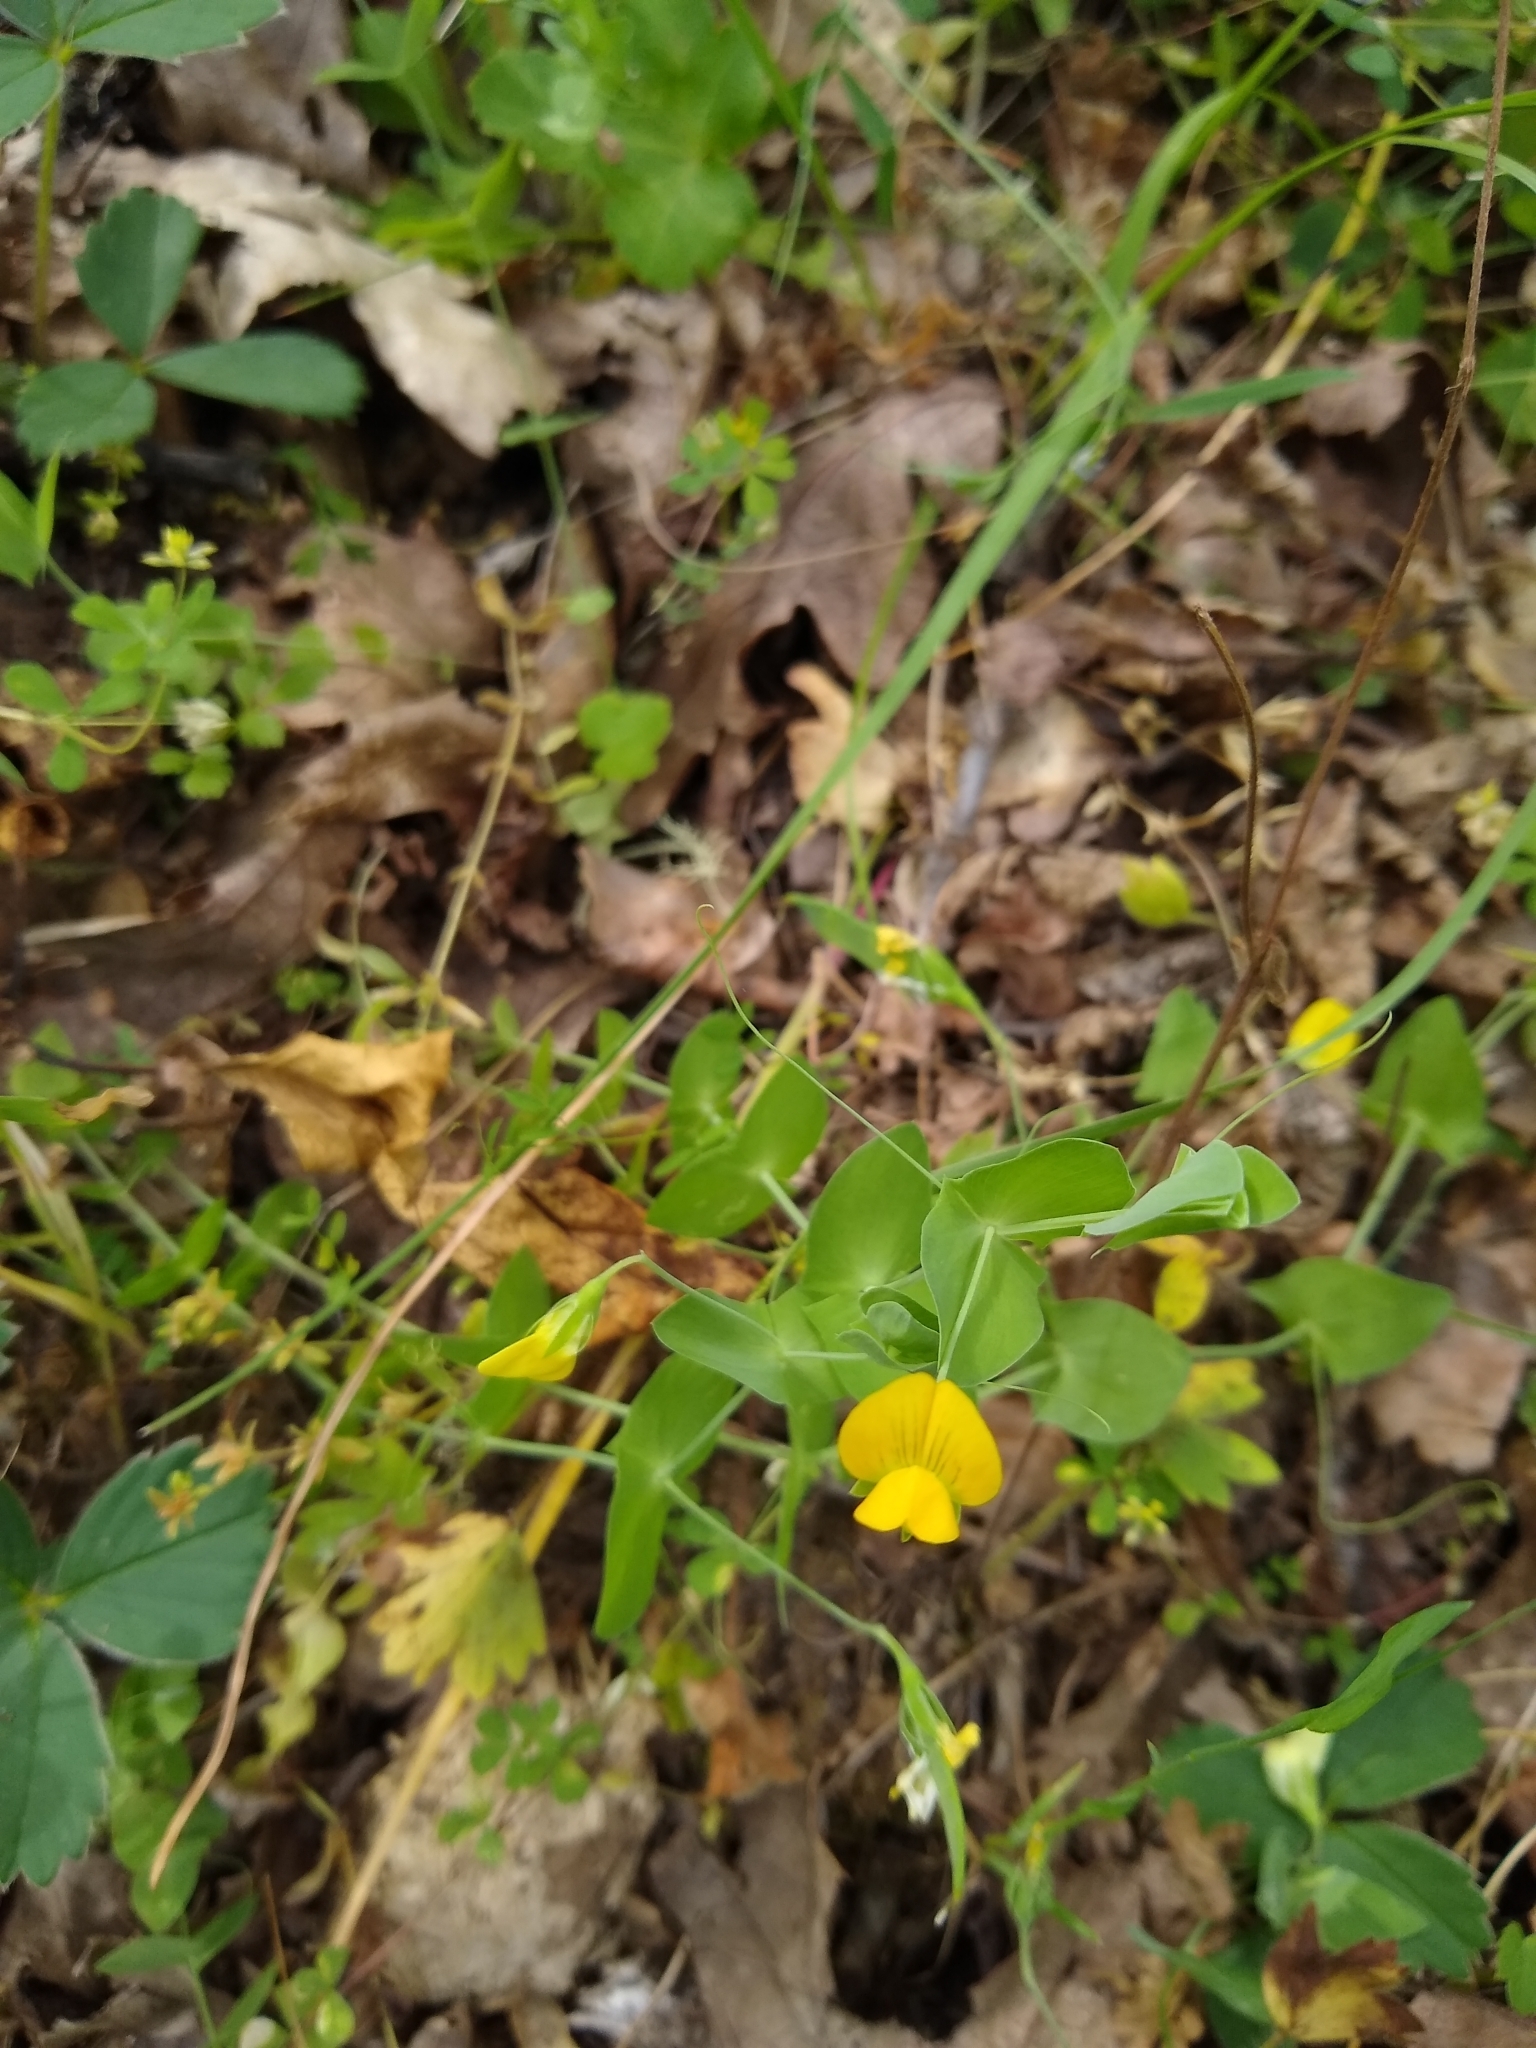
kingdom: Plantae
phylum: Tracheophyta
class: Magnoliopsida
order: Fabales
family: Fabaceae
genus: Lathyrus
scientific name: Lathyrus aphaca
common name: Yellow vetchling
